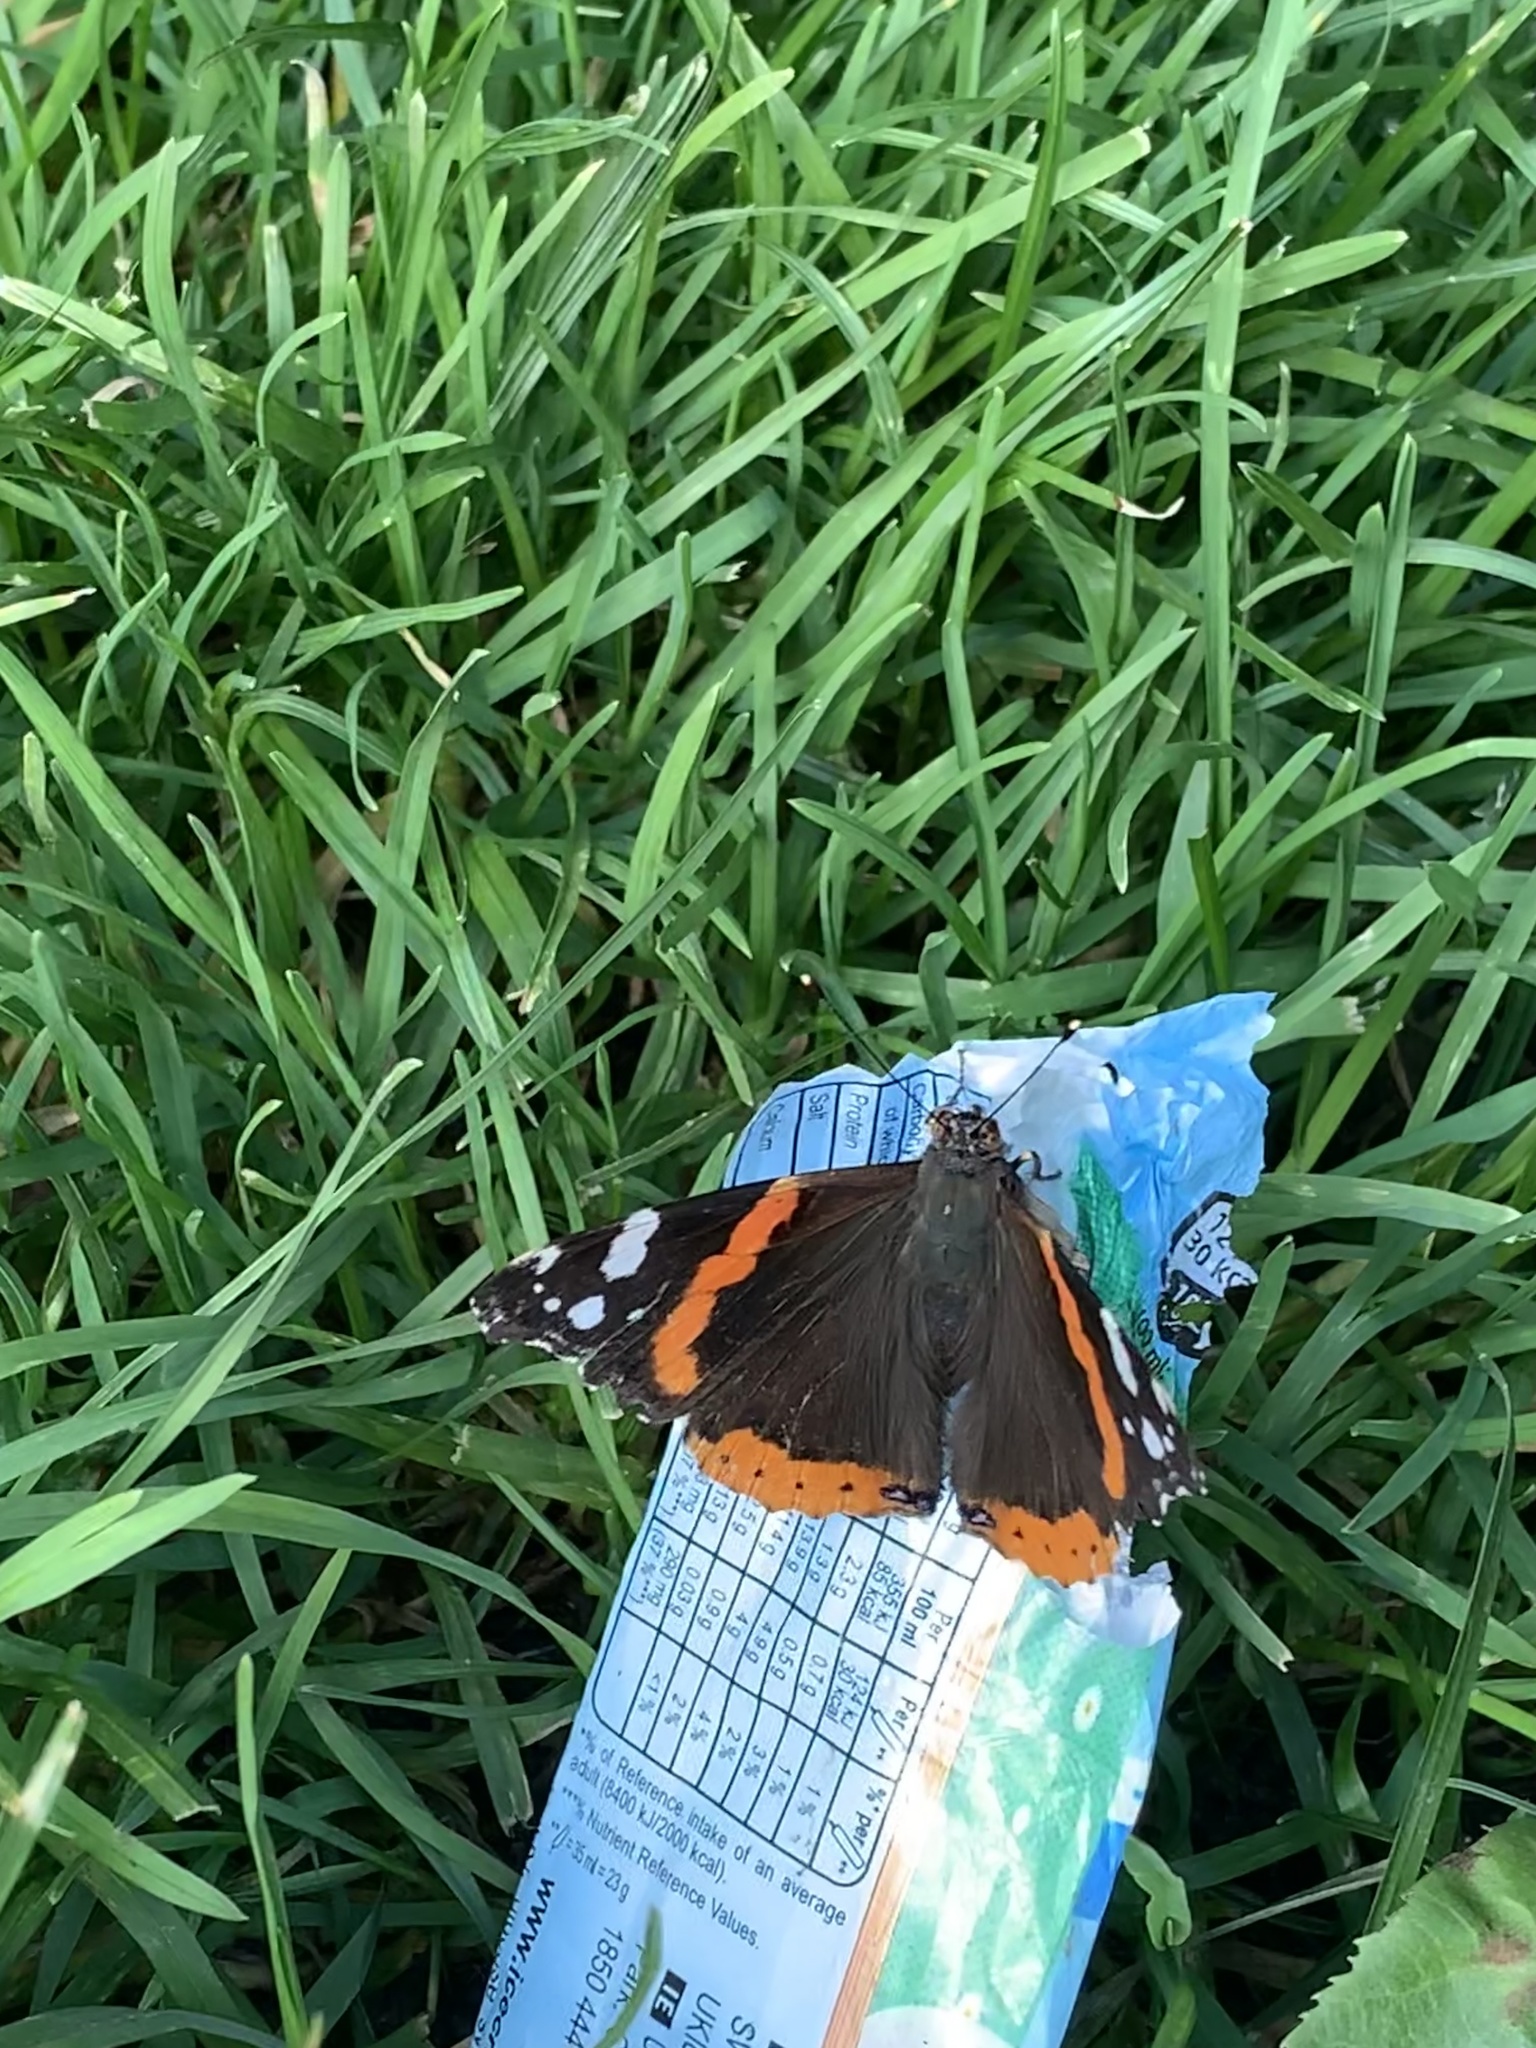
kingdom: Animalia
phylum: Arthropoda
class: Insecta
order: Lepidoptera
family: Nymphalidae
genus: Vanessa
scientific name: Vanessa atalanta
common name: Red admiral
